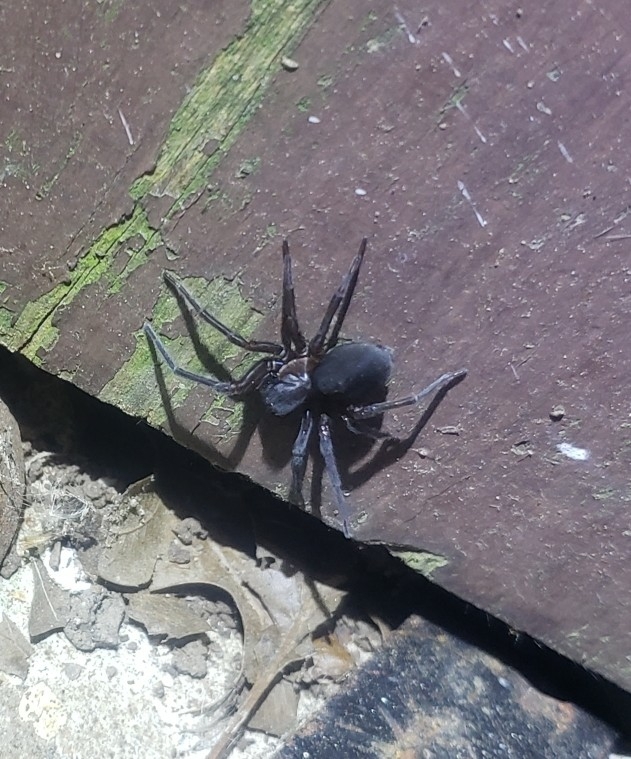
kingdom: Animalia
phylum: Arthropoda
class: Arachnida
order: Araneae
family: Amaurobiidae
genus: Amaurobius
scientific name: Amaurobius ferox
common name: Black laceweaver
